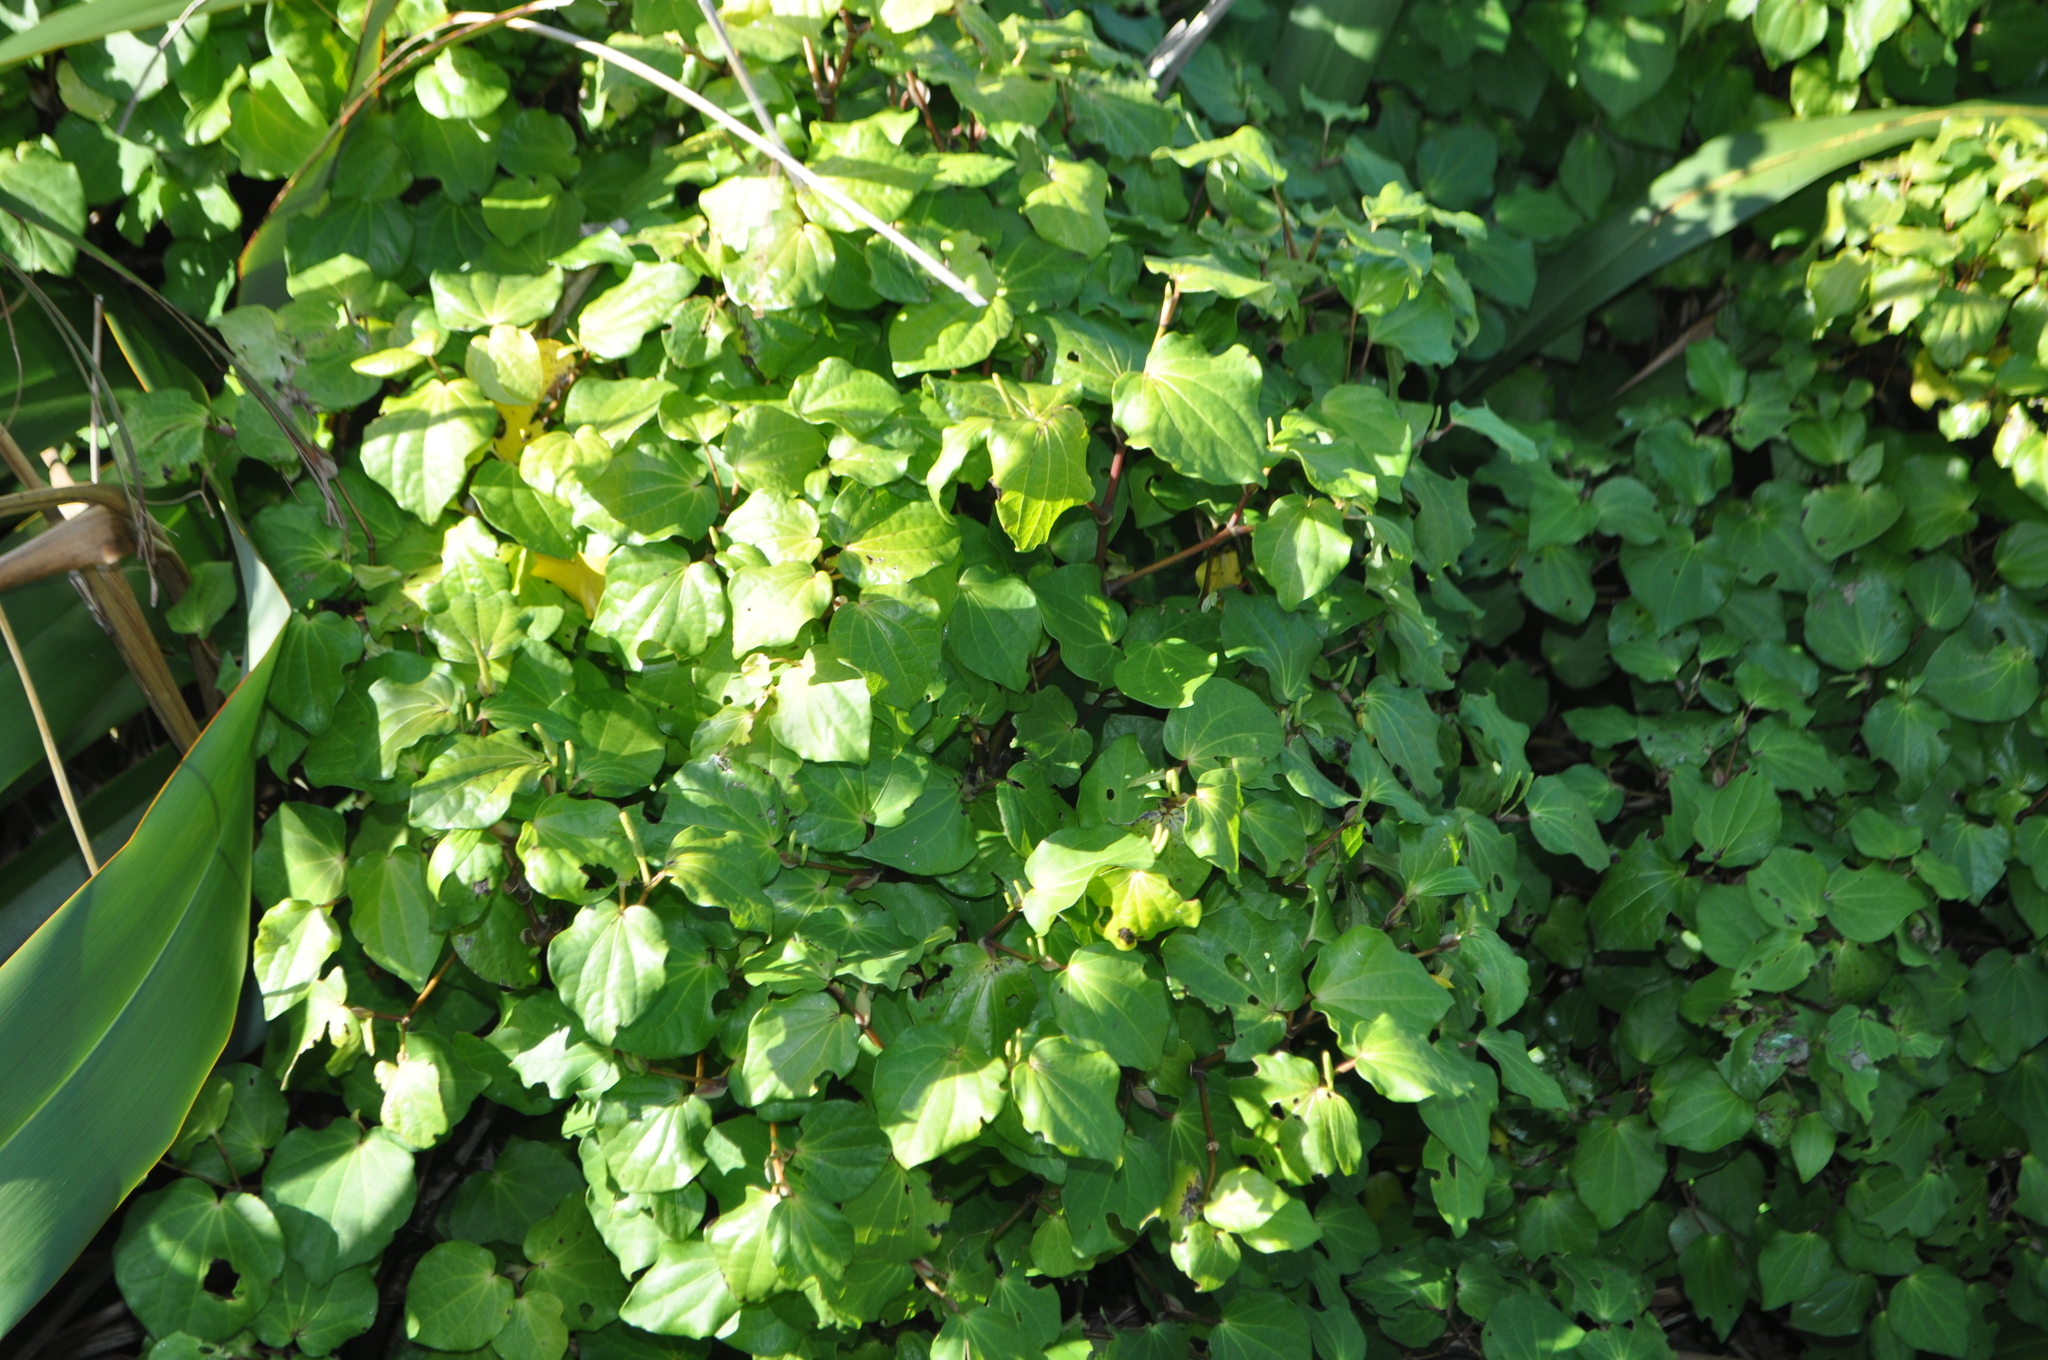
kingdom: Plantae
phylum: Tracheophyta
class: Magnoliopsida
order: Piperales
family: Piperaceae
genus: Macropiper
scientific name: Macropiper excelsum
